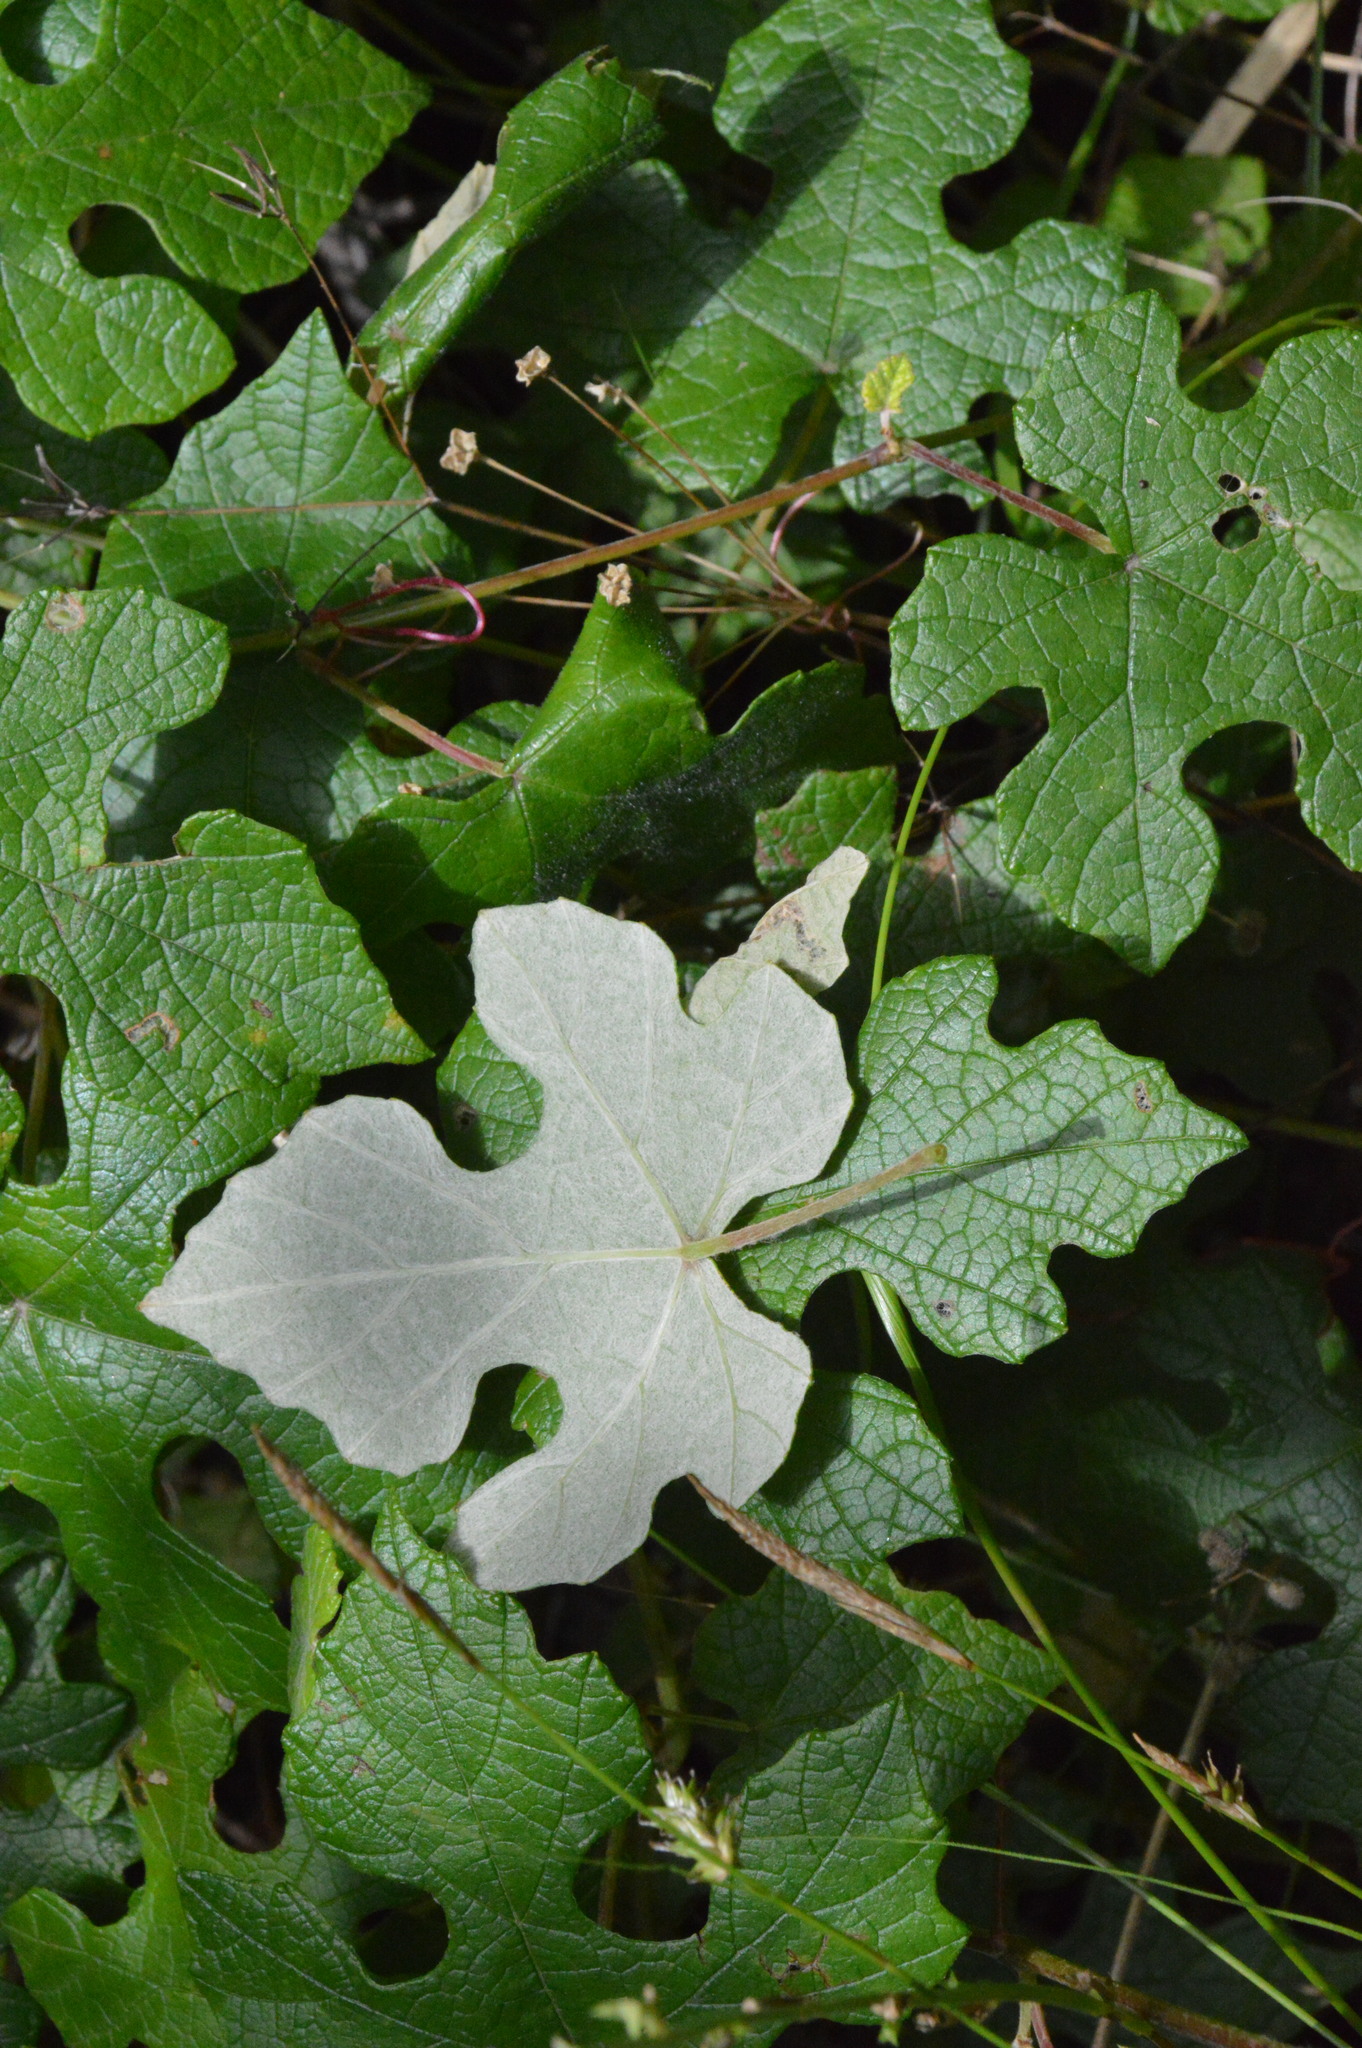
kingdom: Plantae
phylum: Tracheophyta
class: Magnoliopsida
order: Vitales
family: Vitaceae
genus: Vitis
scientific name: Vitis mustangensis
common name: Mustang grape
